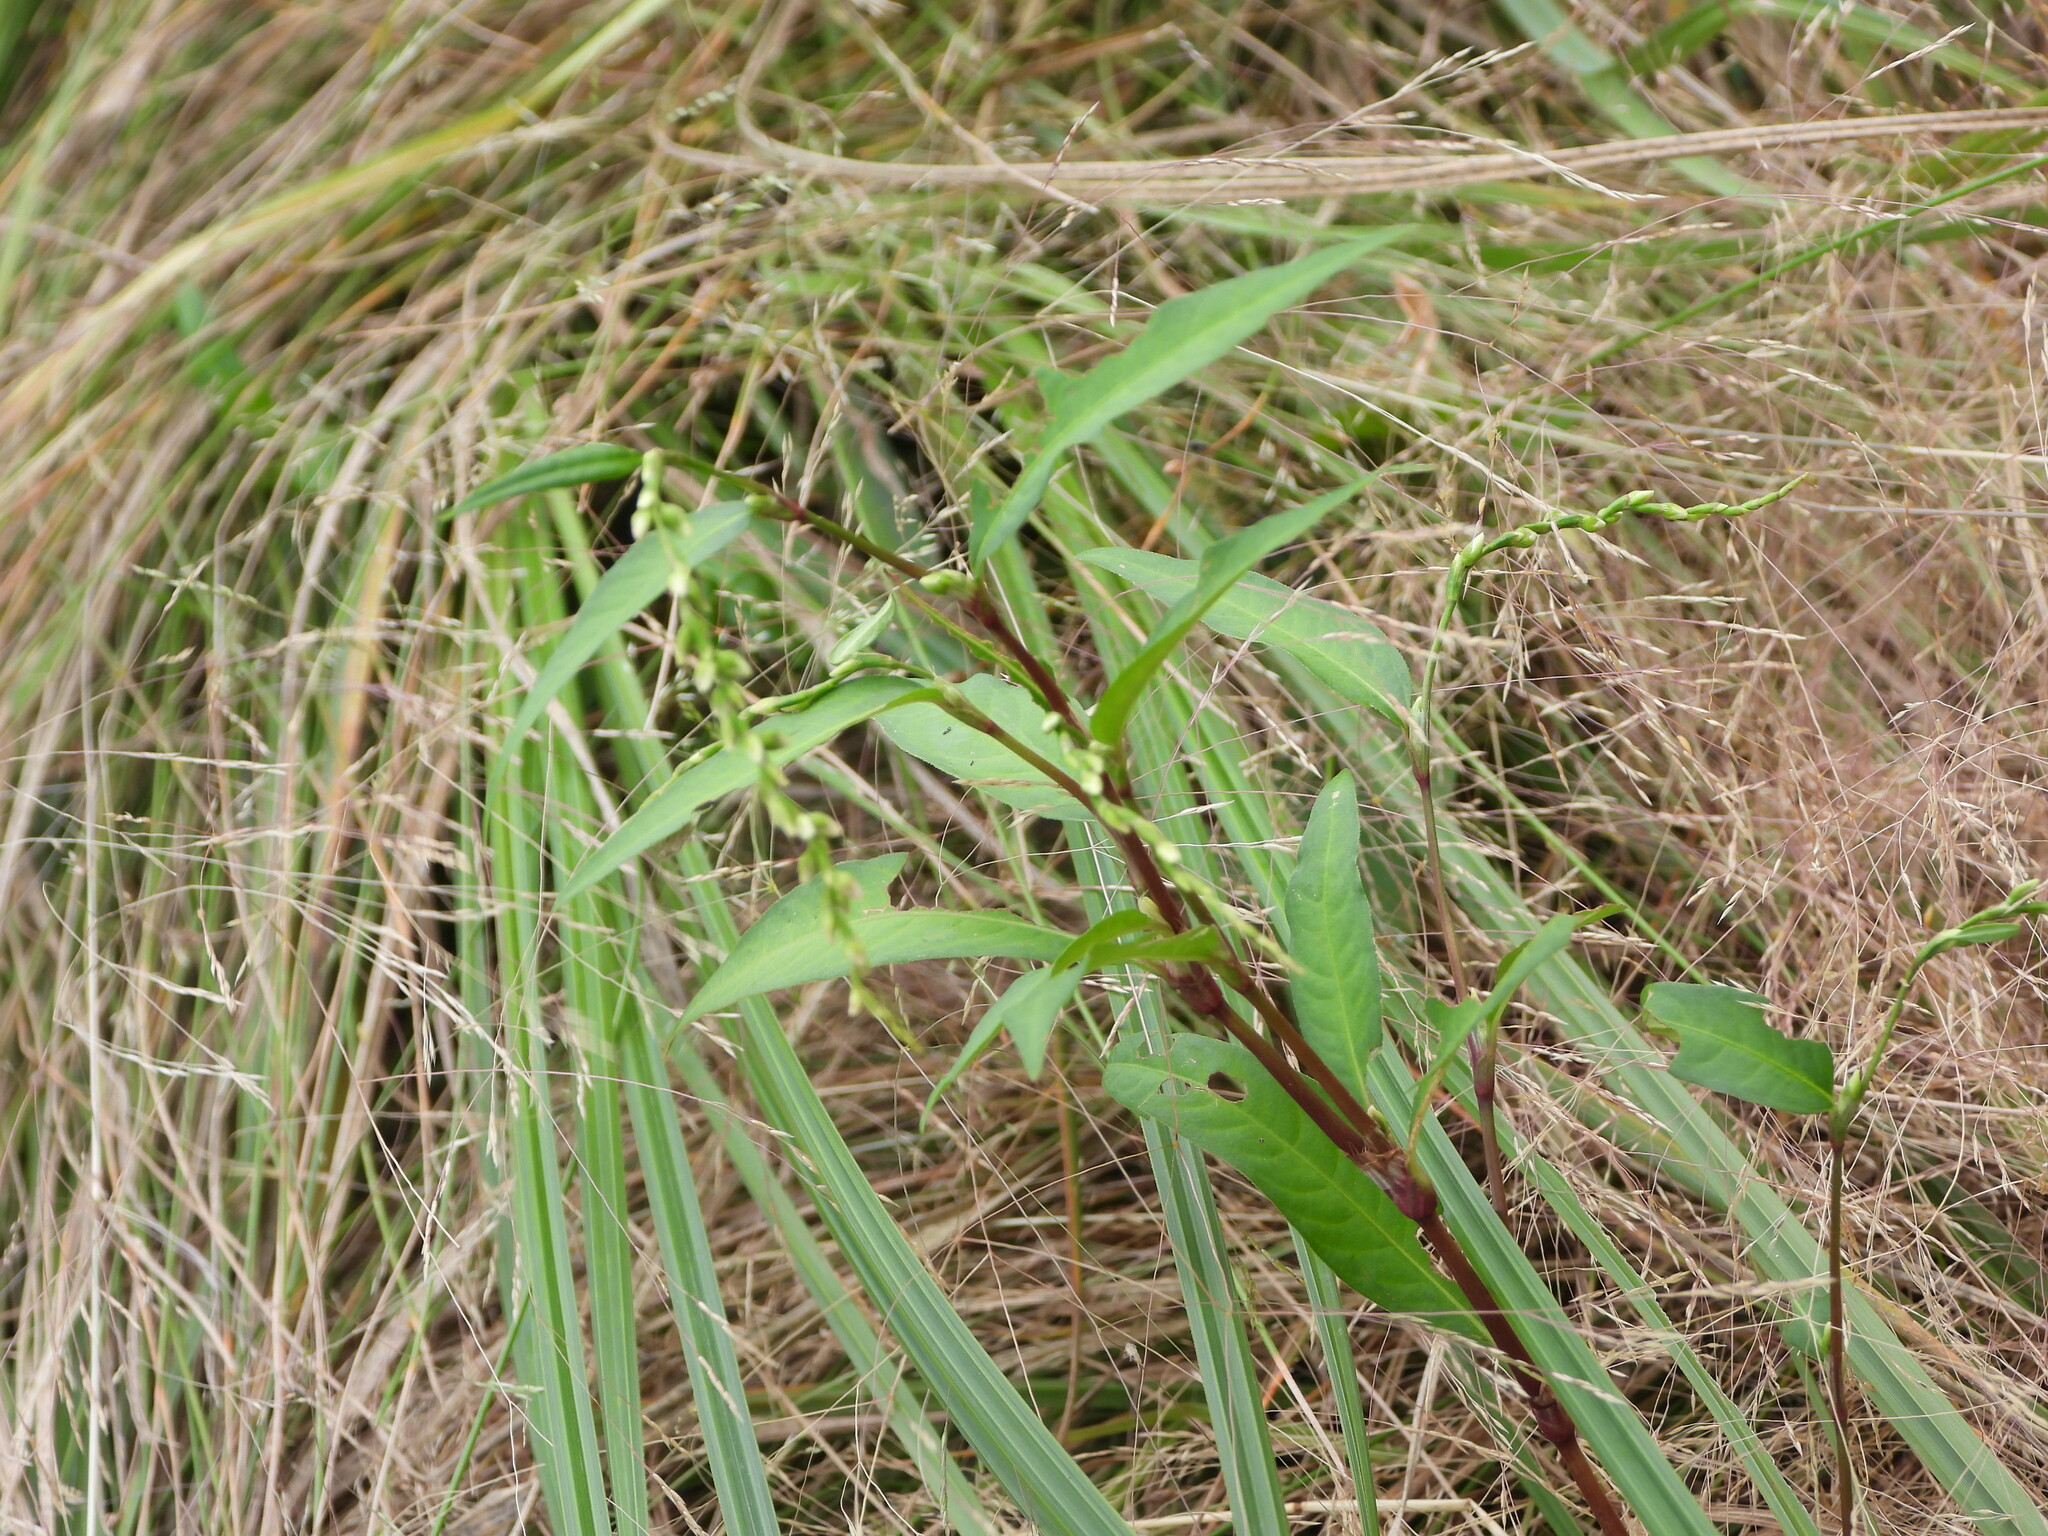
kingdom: Plantae
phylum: Tracheophyta
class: Magnoliopsida
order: Caryophyllales
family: Polygonaceae
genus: Persicaria
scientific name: Persicaria hydropiper
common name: Water-pepper
